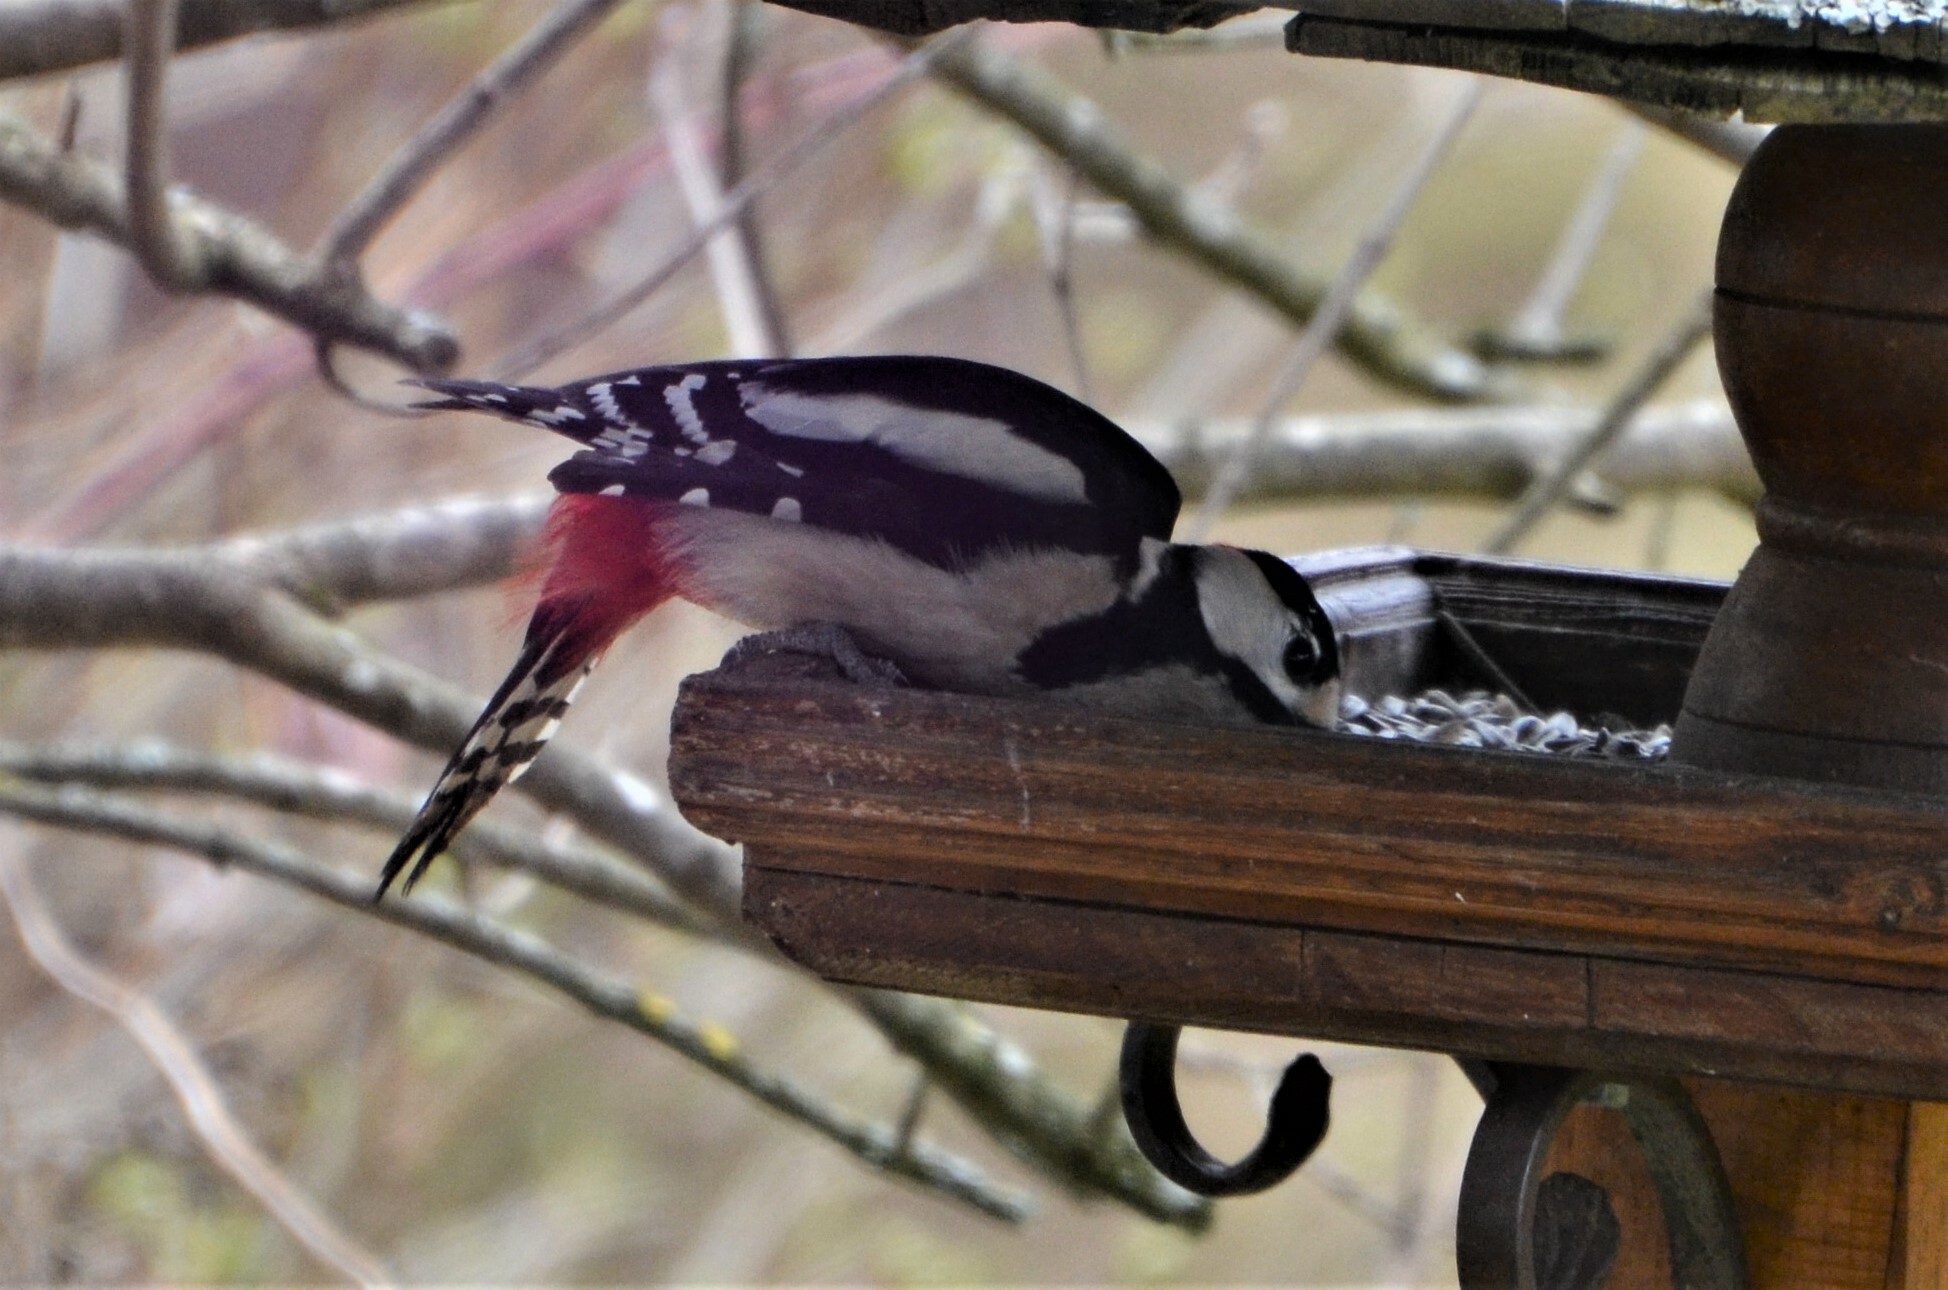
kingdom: Animalia
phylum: Chordata
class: Aves
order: Piciformes
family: Picidae
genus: Dendrocopos
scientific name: Dendrocopos major
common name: Great spotted woodpecker
